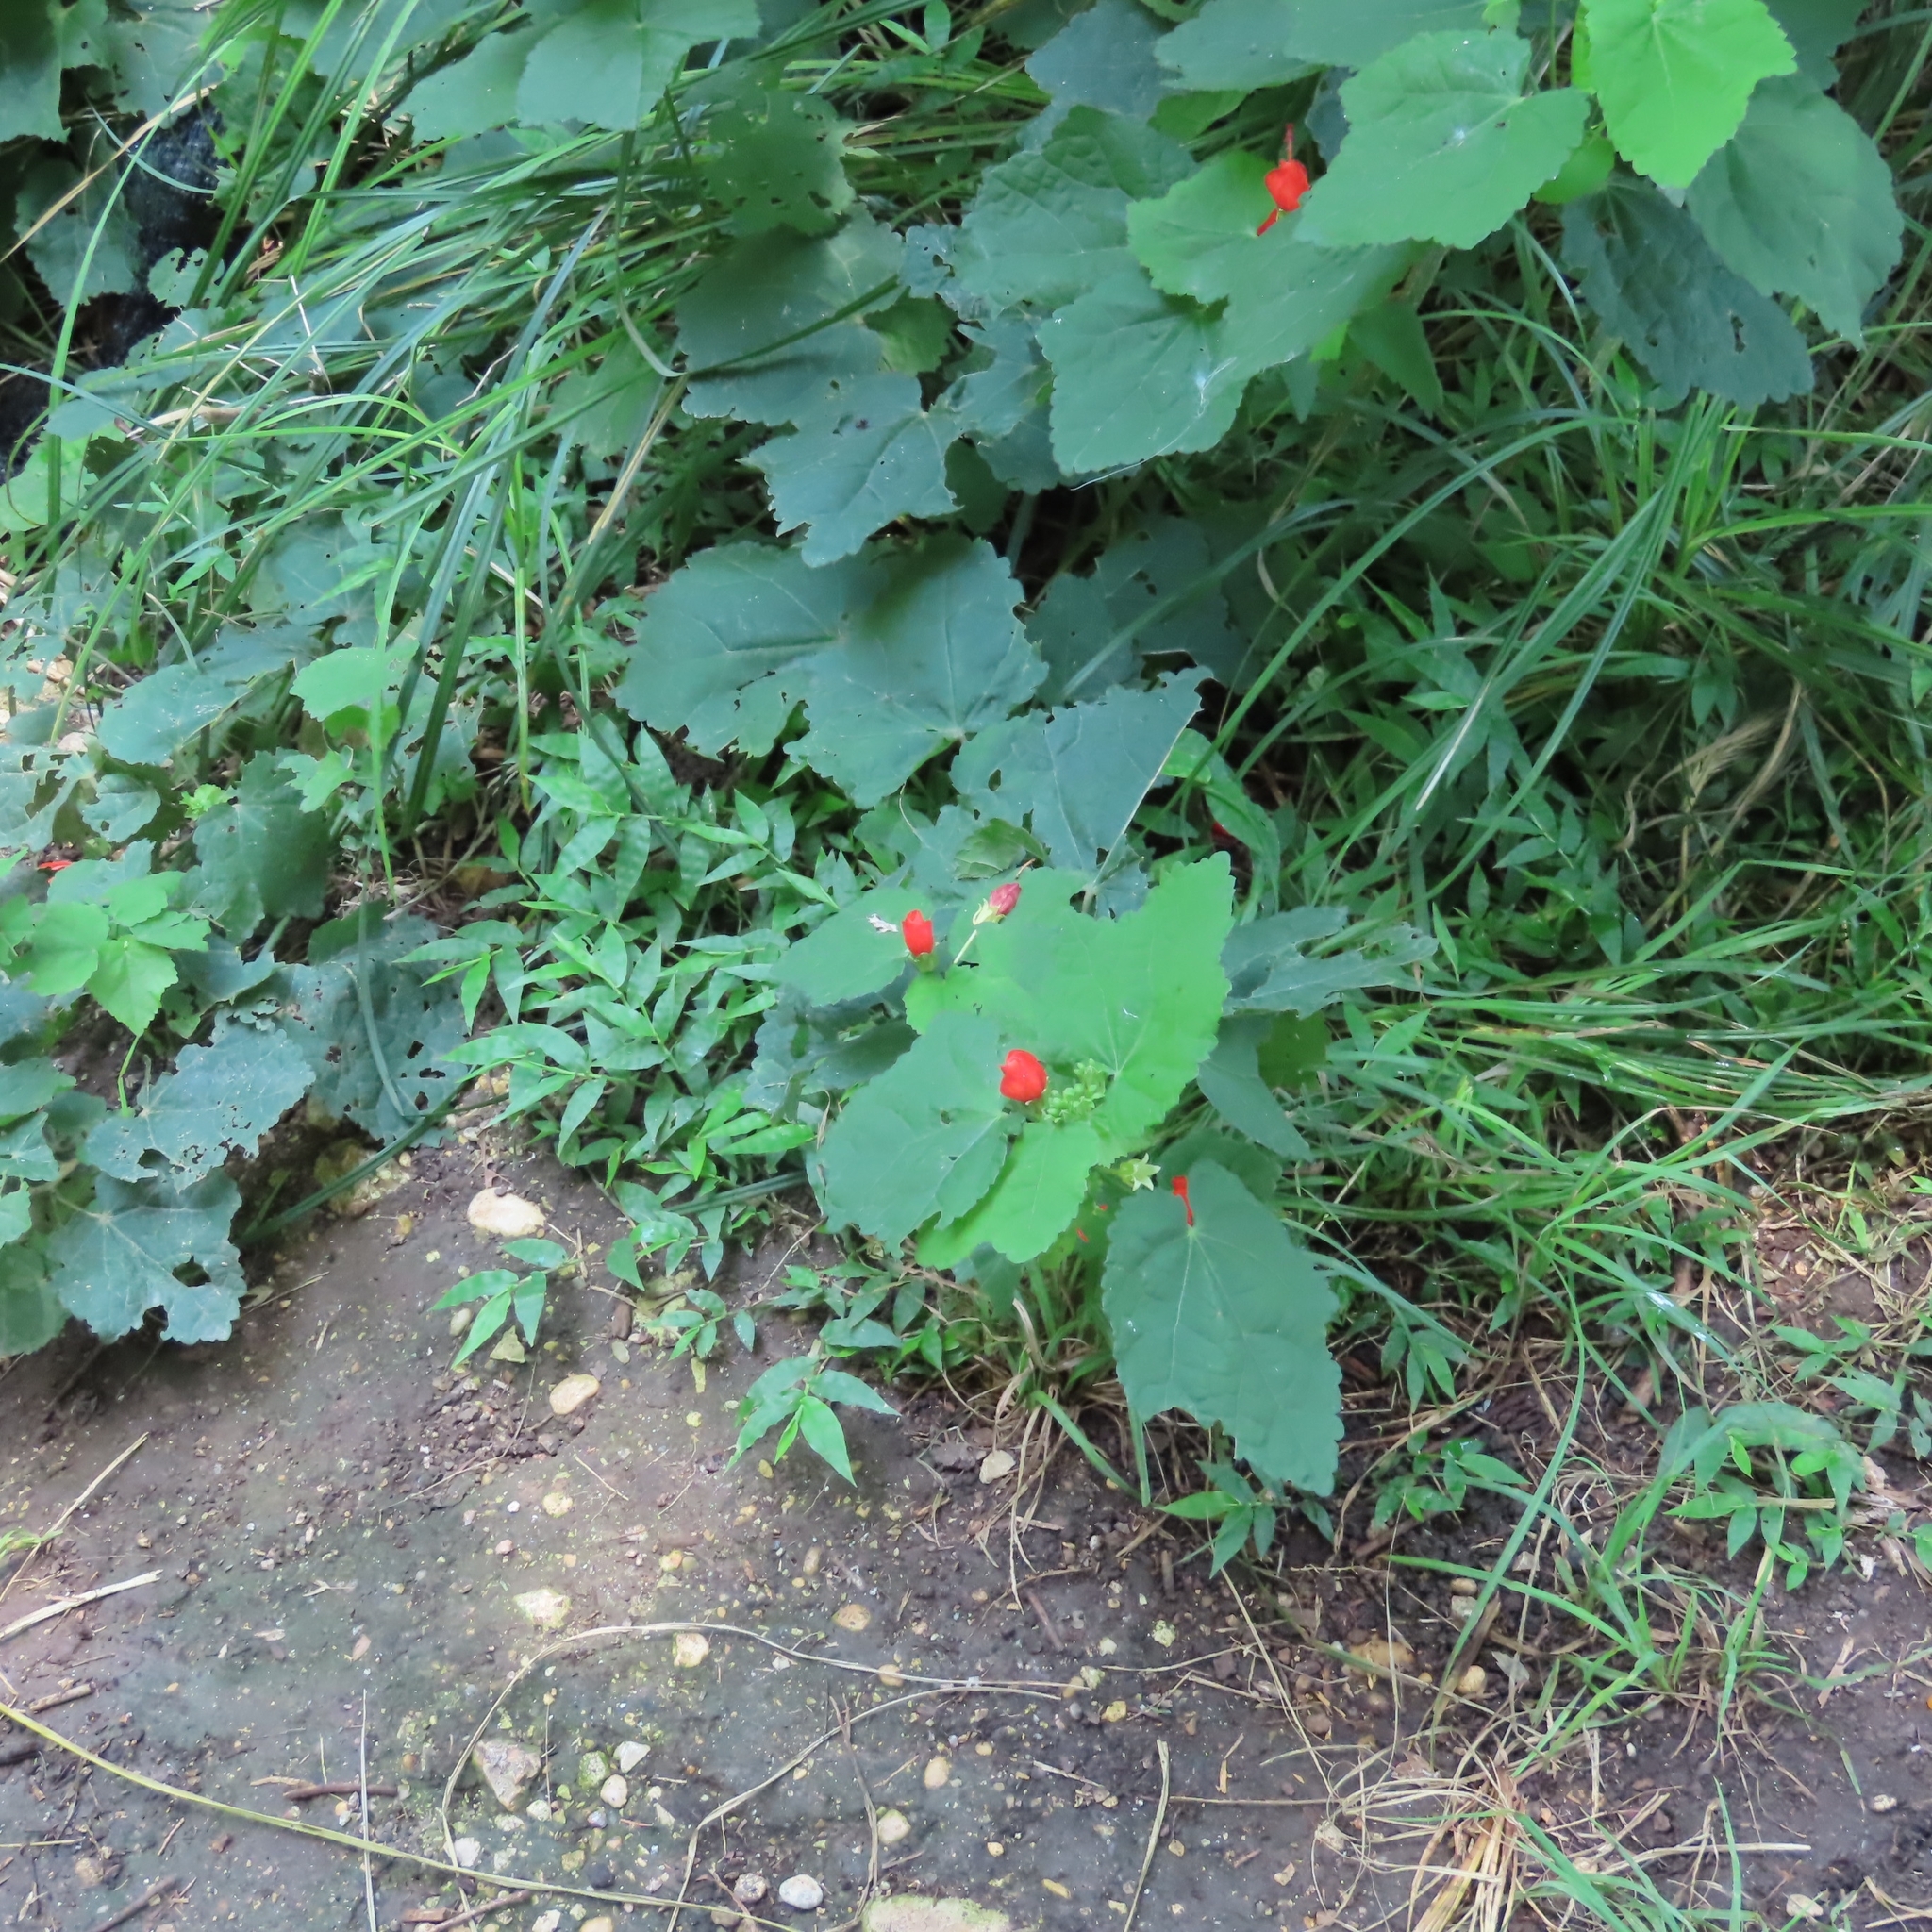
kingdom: Plantae
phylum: Tracheophyta
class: Magnoliopsida
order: Malvales
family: Malvaceae
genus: Malvaviscus
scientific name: Malvaviscus arboreus
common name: Wax mallow
